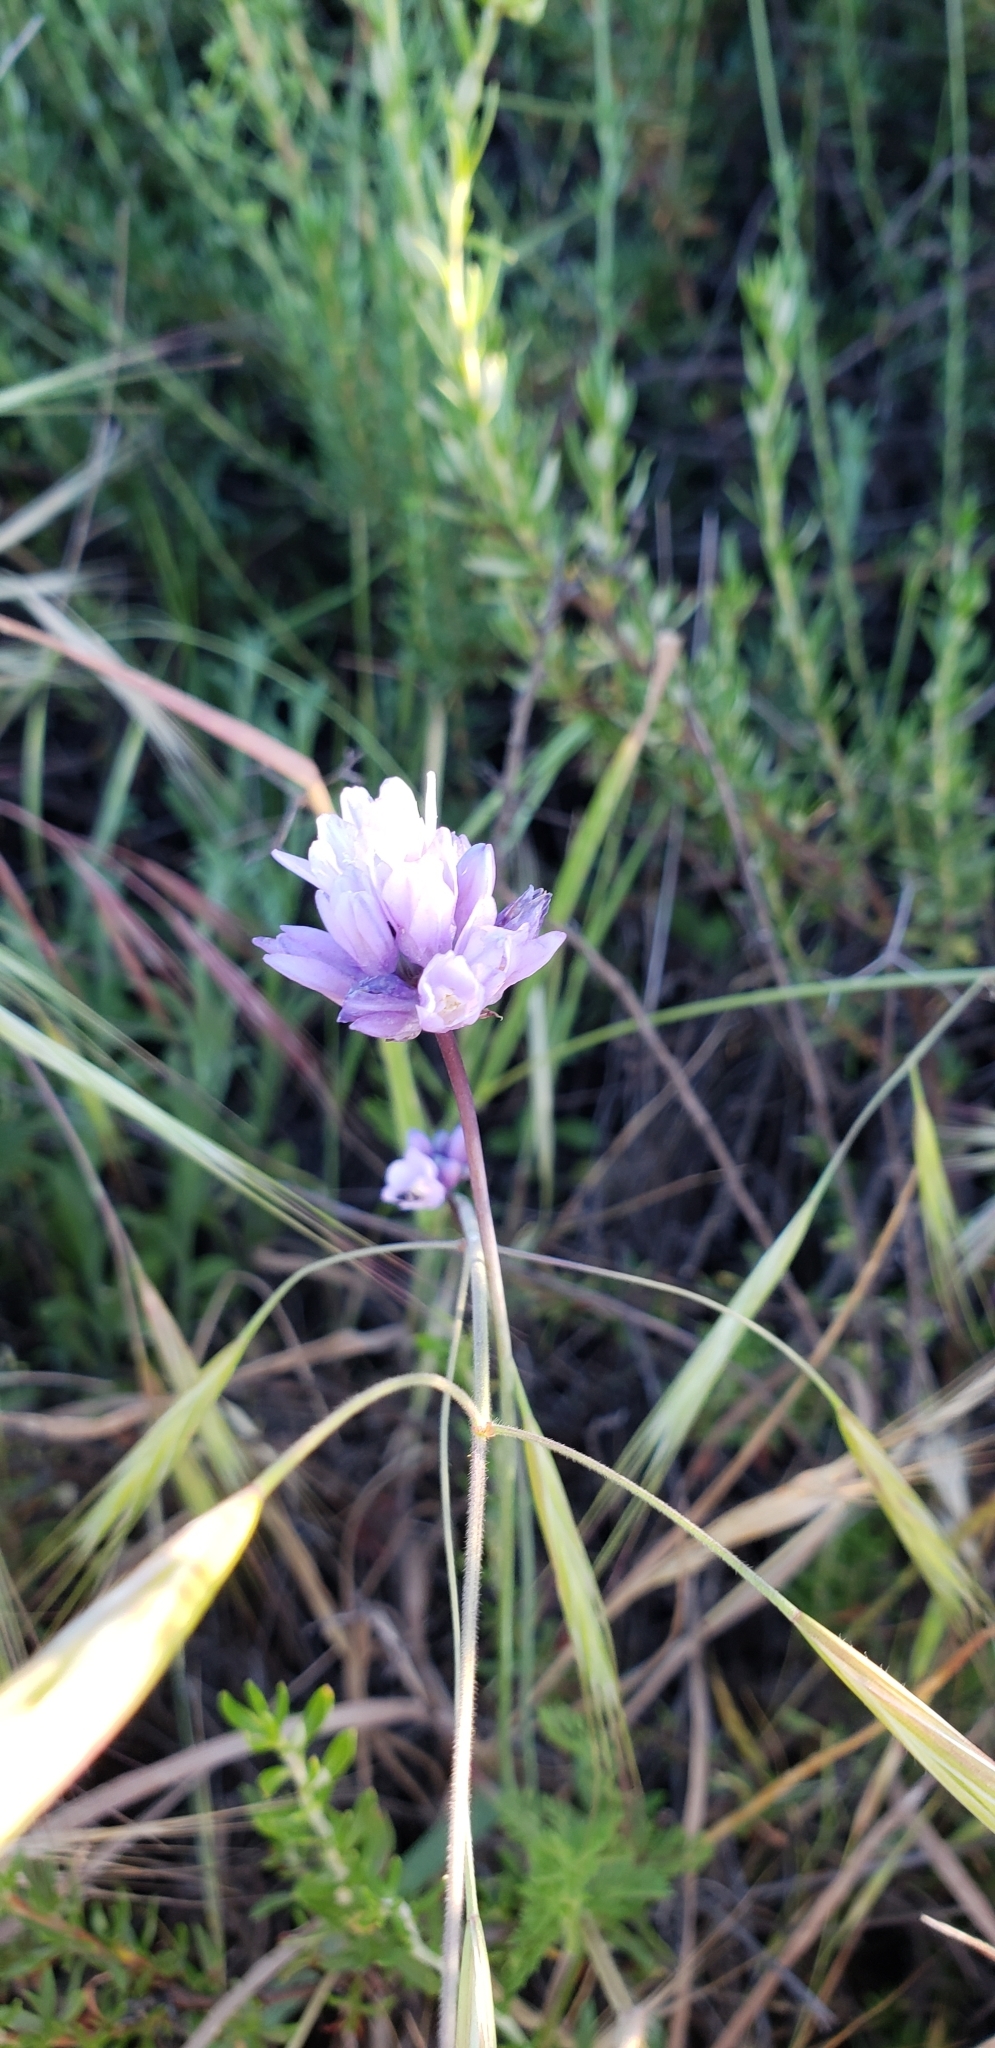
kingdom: Plantae
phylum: Tracheophyta
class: Magnoliopsida
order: Lamiales
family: Phrymaceae
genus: Diplacus
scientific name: Diplacus puniceus
